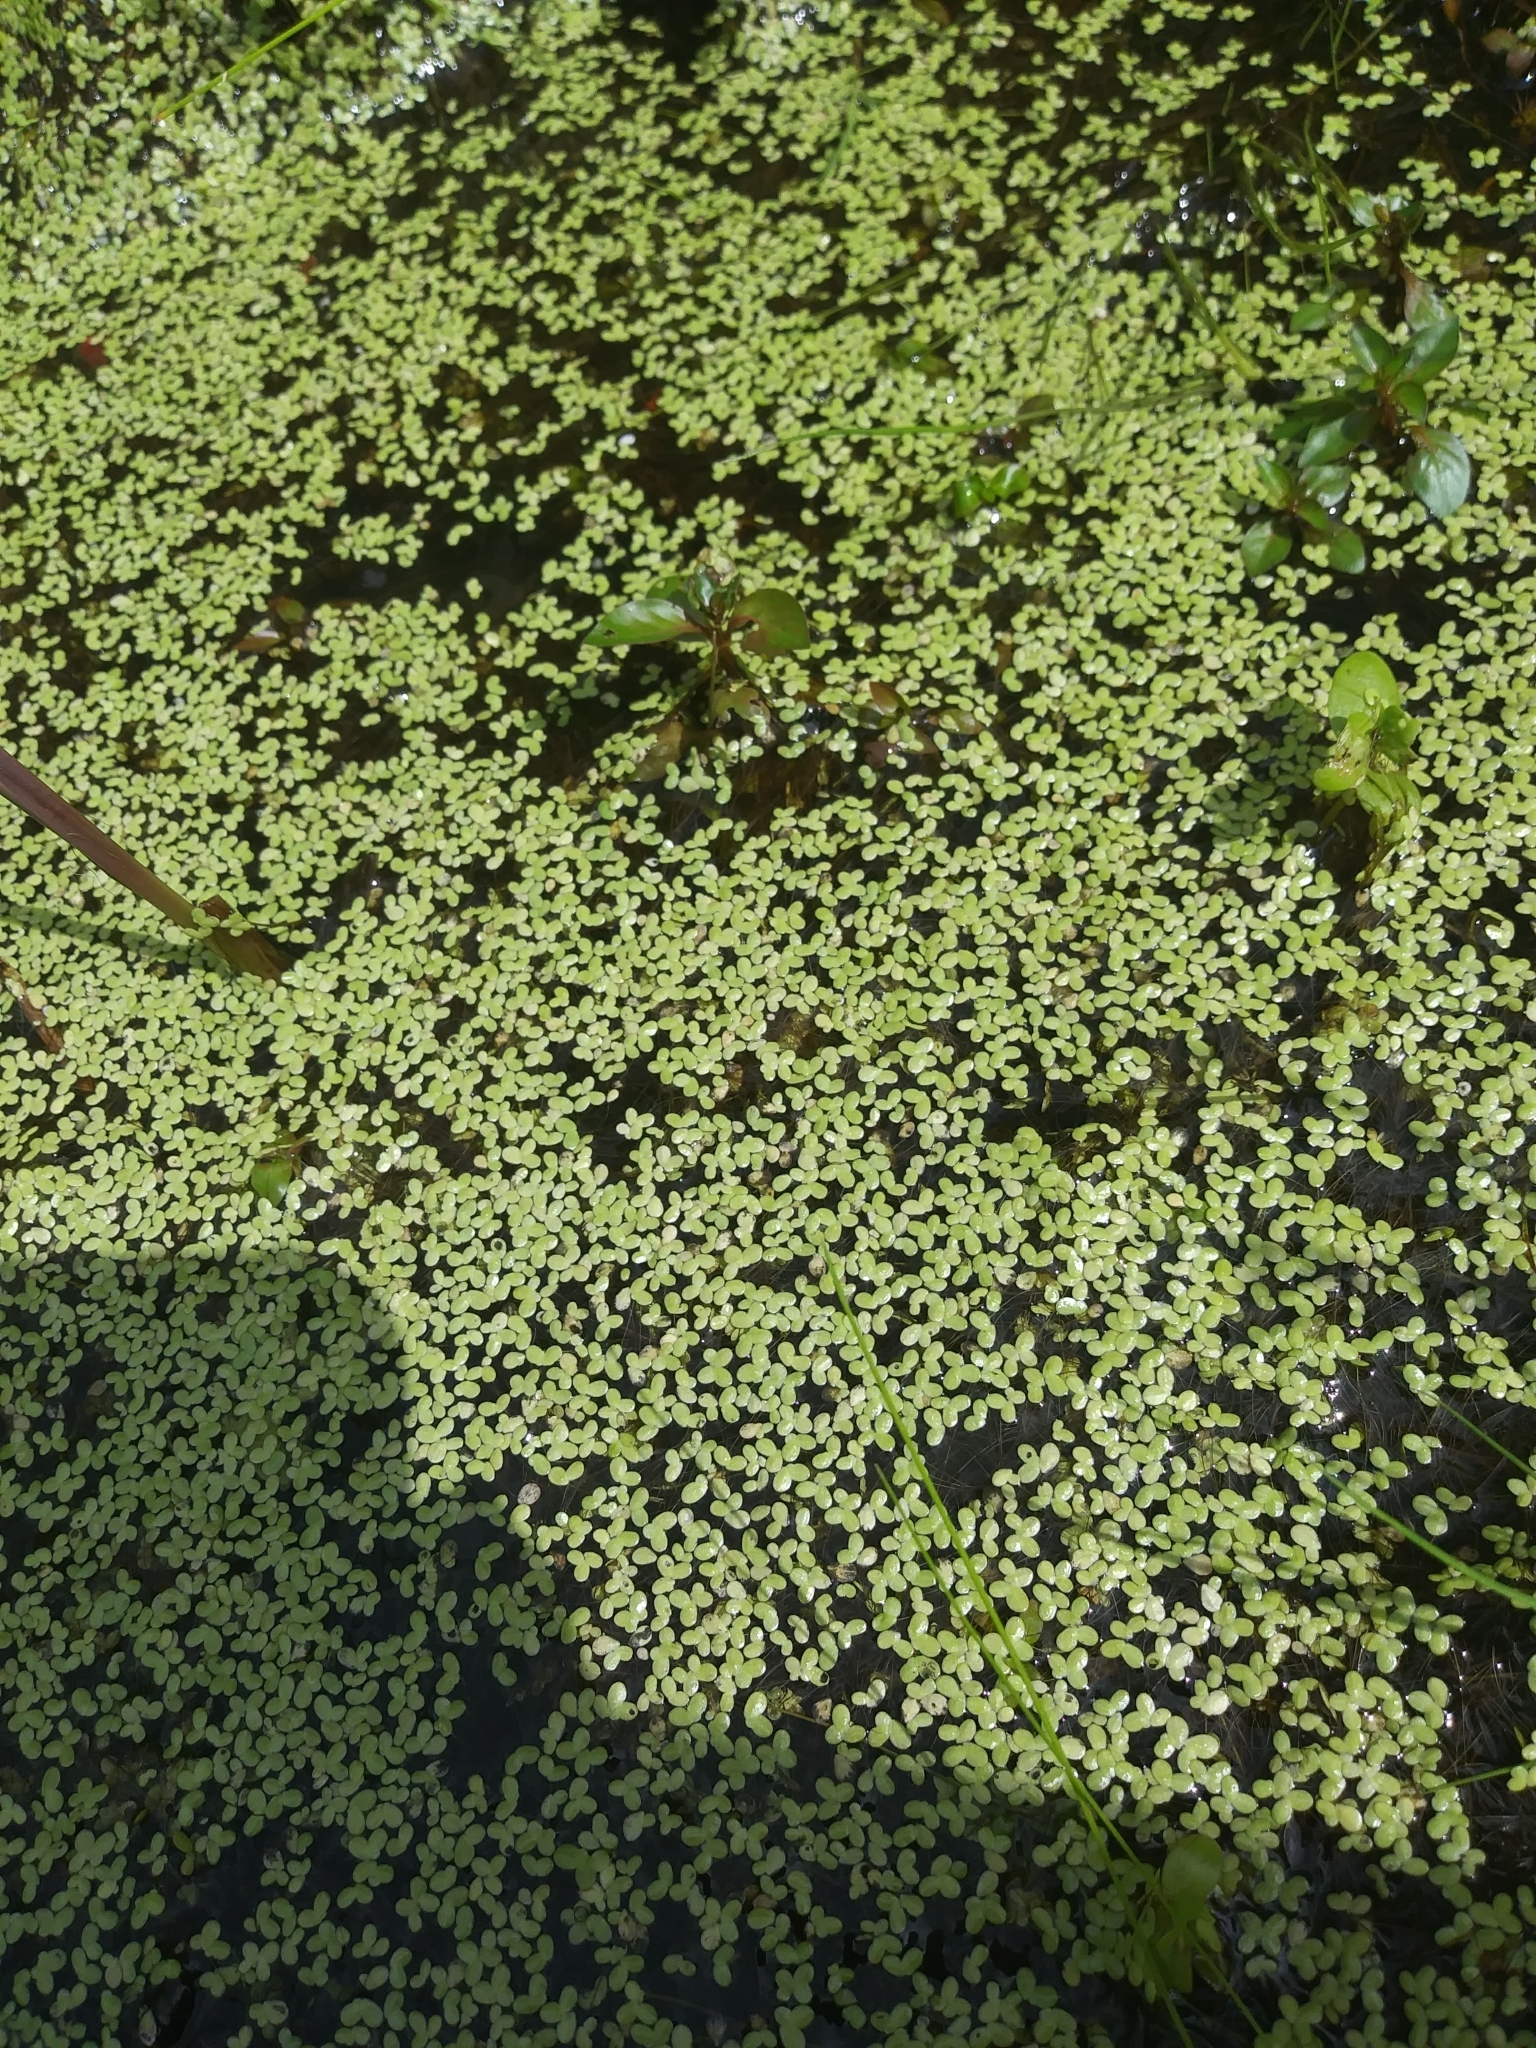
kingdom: Plantae
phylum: Tracheophyta
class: Liliopsida
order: Alismatales
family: Araceae
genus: Lemna
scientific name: Lemna minor
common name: Common duckweed
